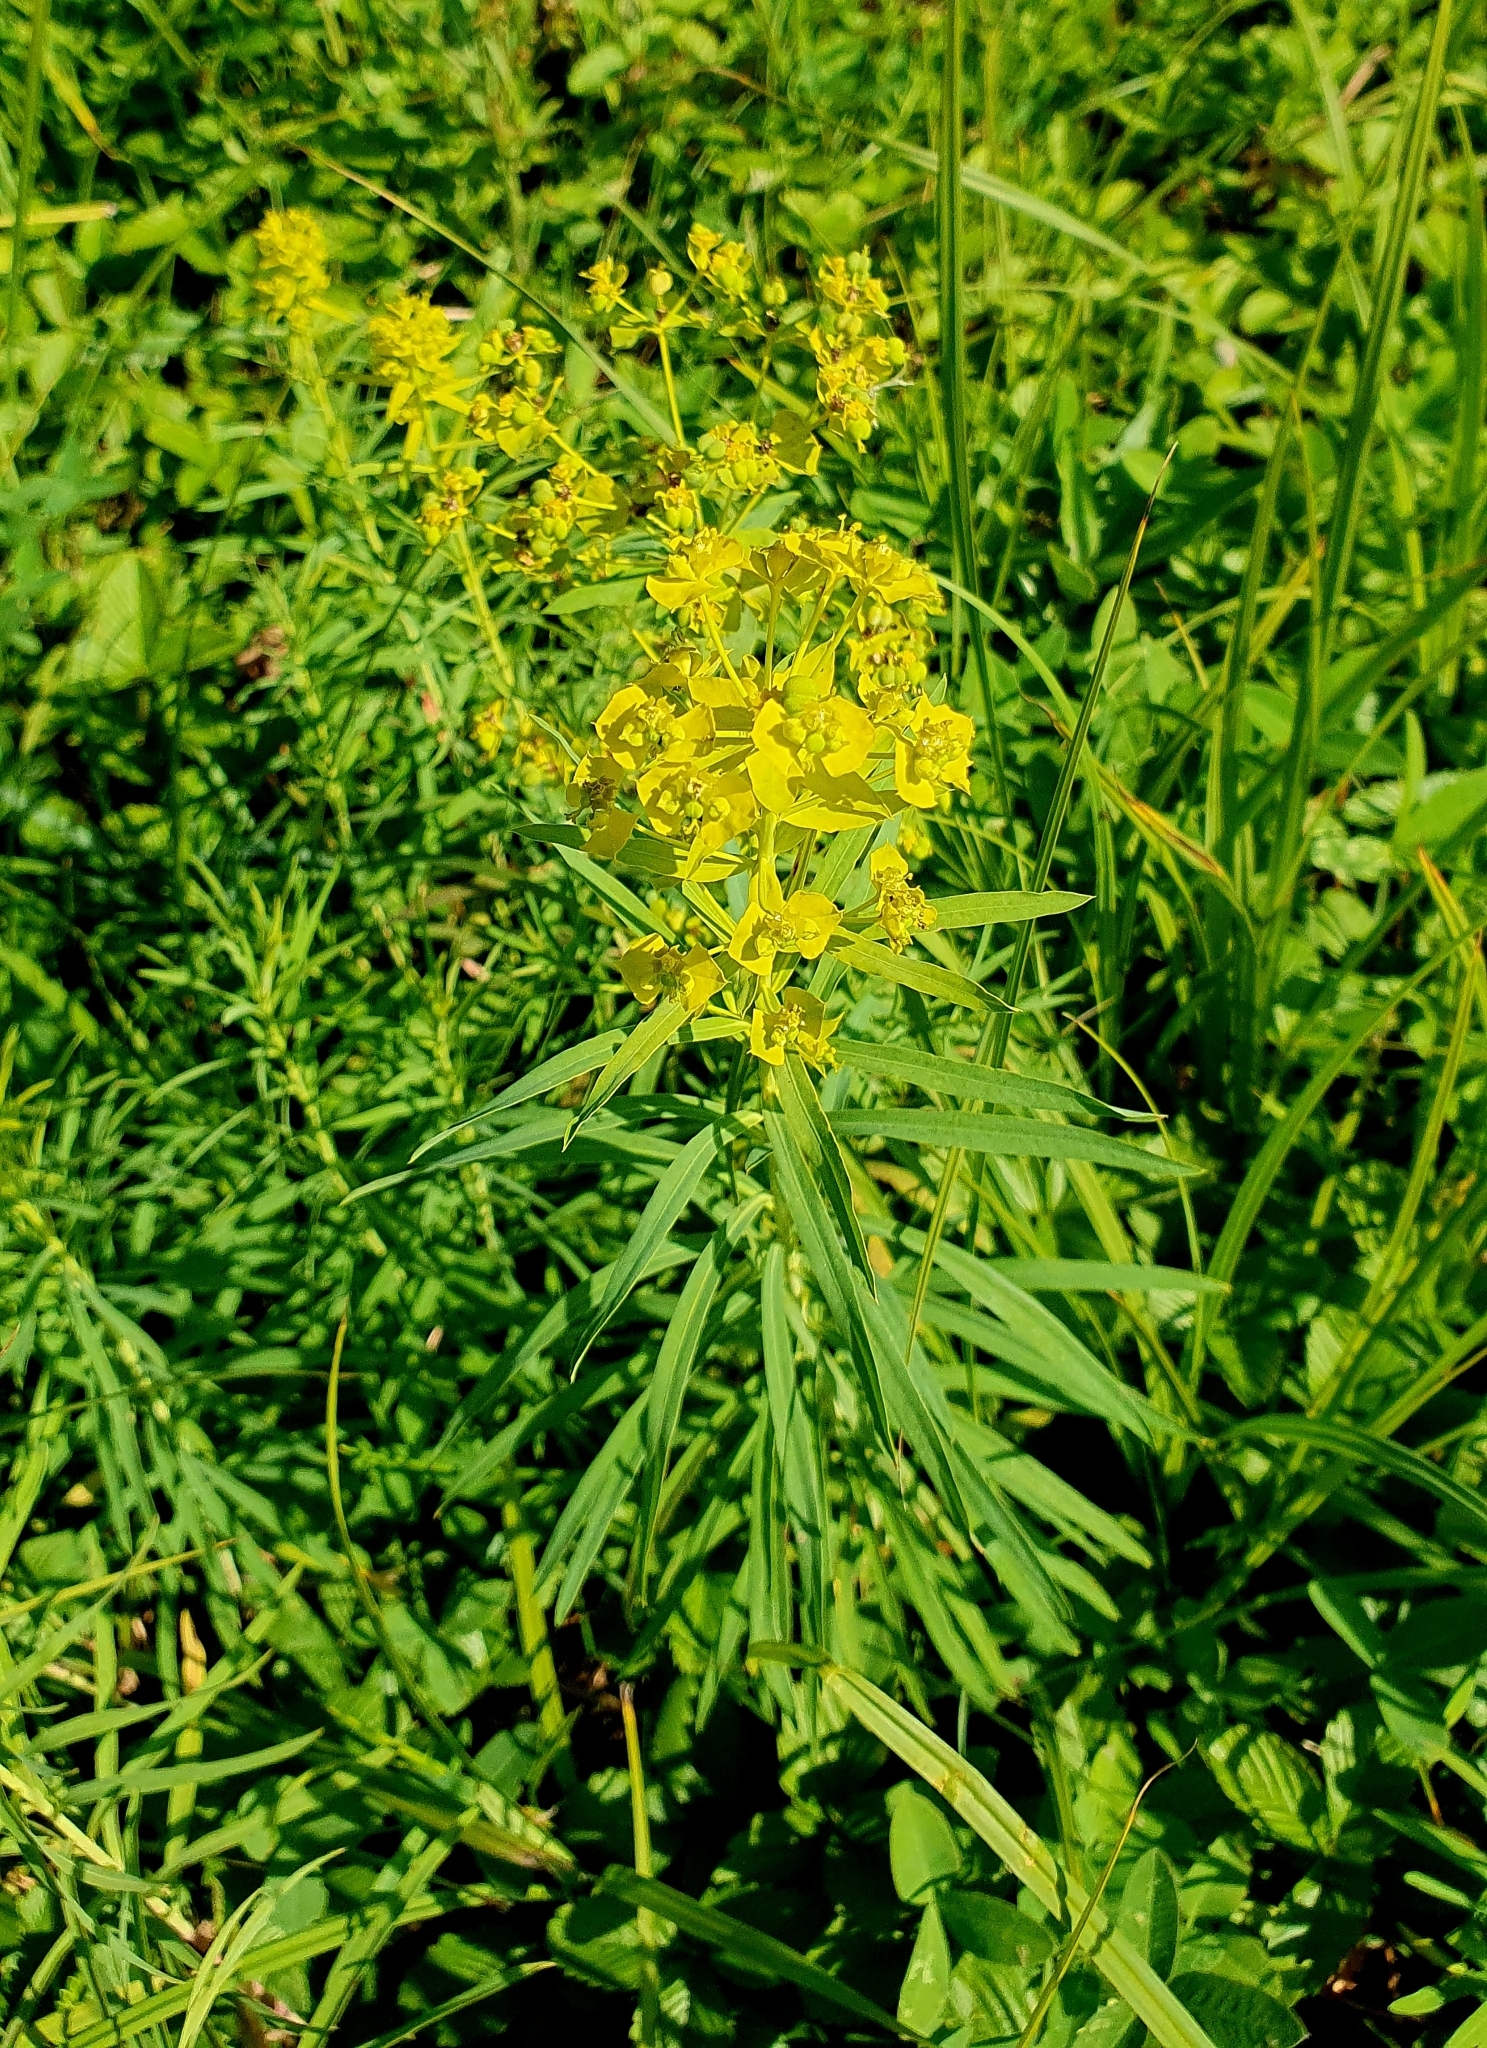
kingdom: Plantae
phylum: Tracheophyta
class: Magnoliopsida
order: Malpighiales
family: Euphorbiaceae
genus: Euphorbia
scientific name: Euphorbia virgata
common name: Leafy spurge
